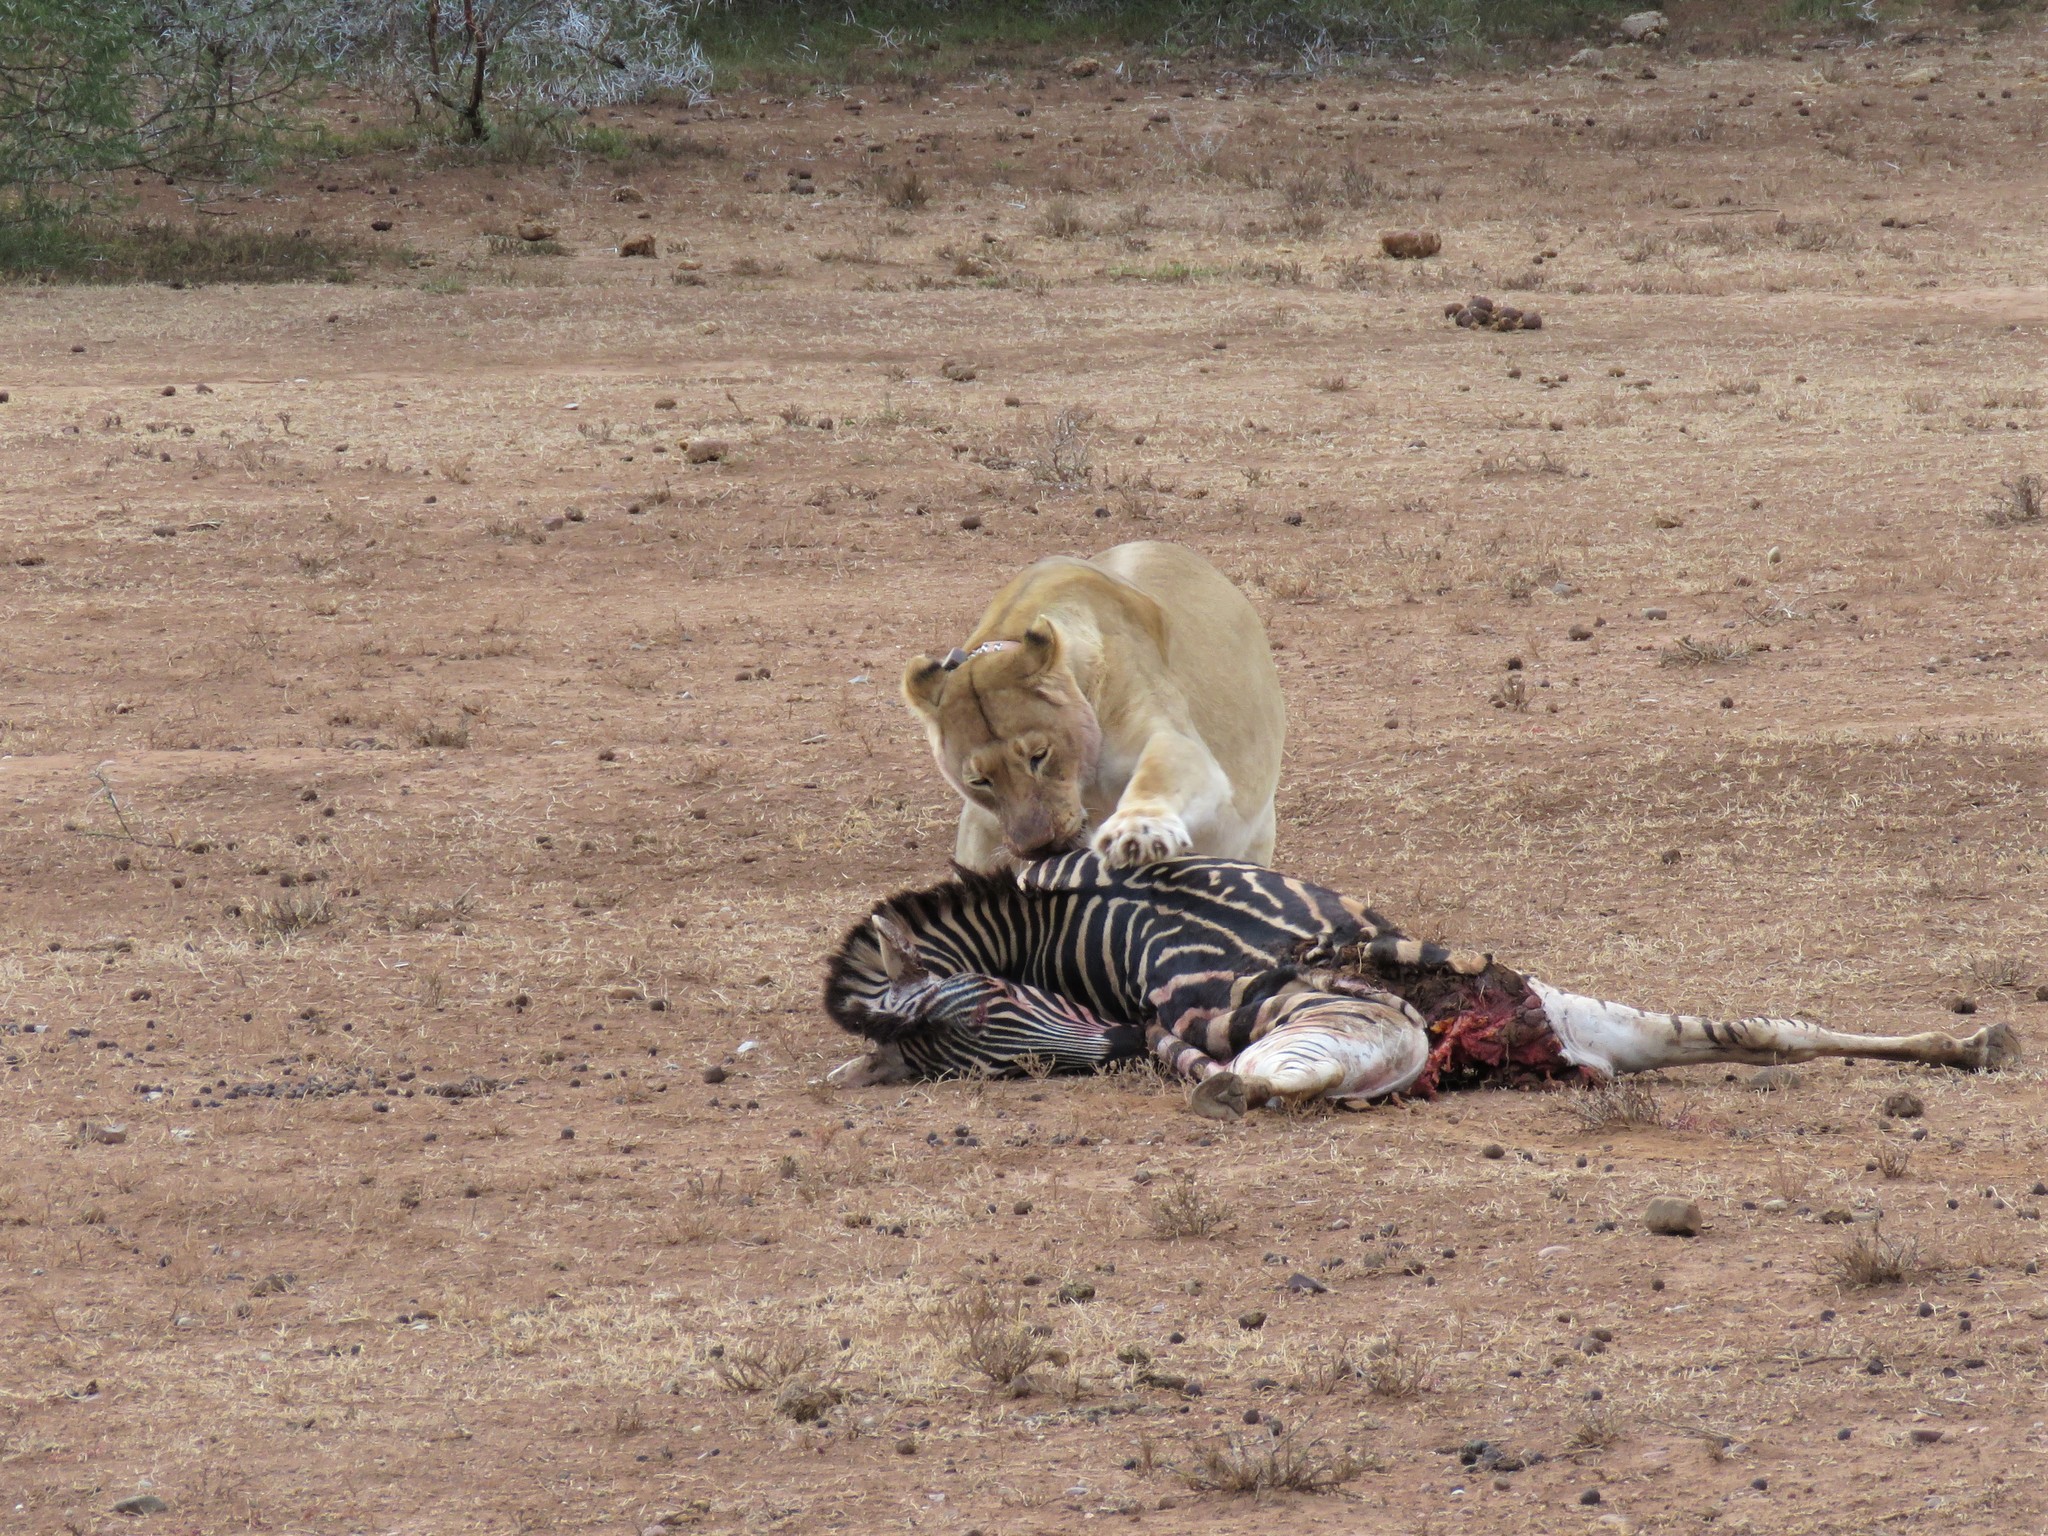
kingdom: Animalia
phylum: Chordata
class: Mammalia
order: Carnivora
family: Felidae
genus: Panthera
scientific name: Panthera leo
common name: Lion
